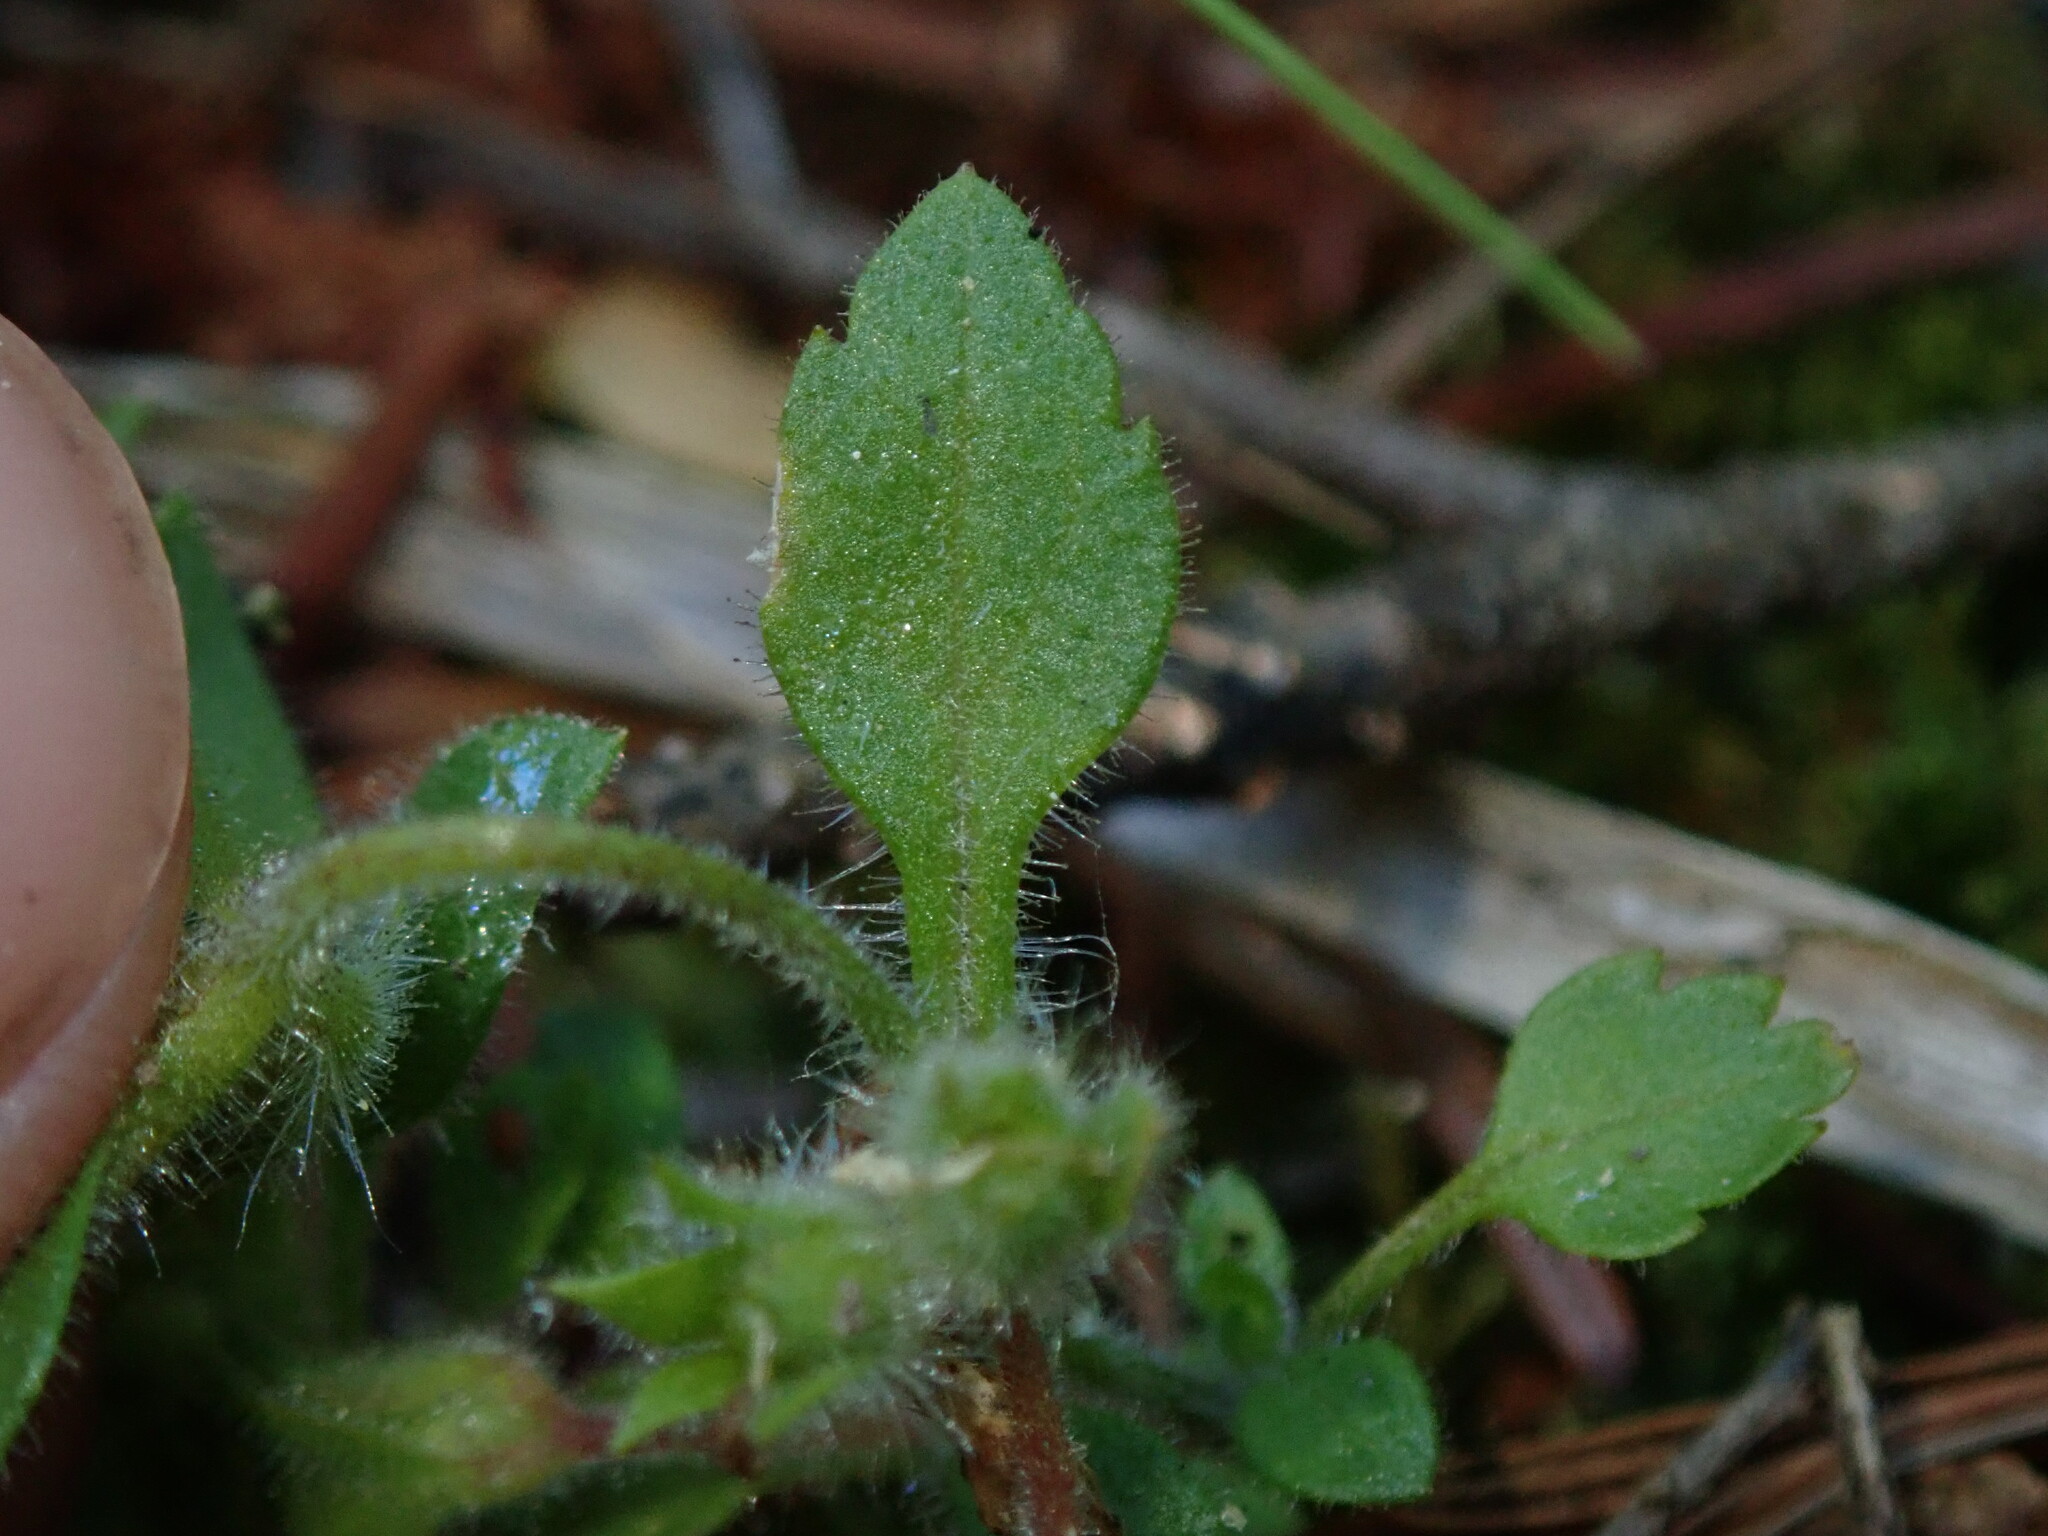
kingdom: Plantae
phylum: Tracheophyta
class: Magnoliopsida
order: Ericales
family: Polemoniaceae
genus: Collomia
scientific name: Collomia heterophylla
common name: Variable-leaved collomia
